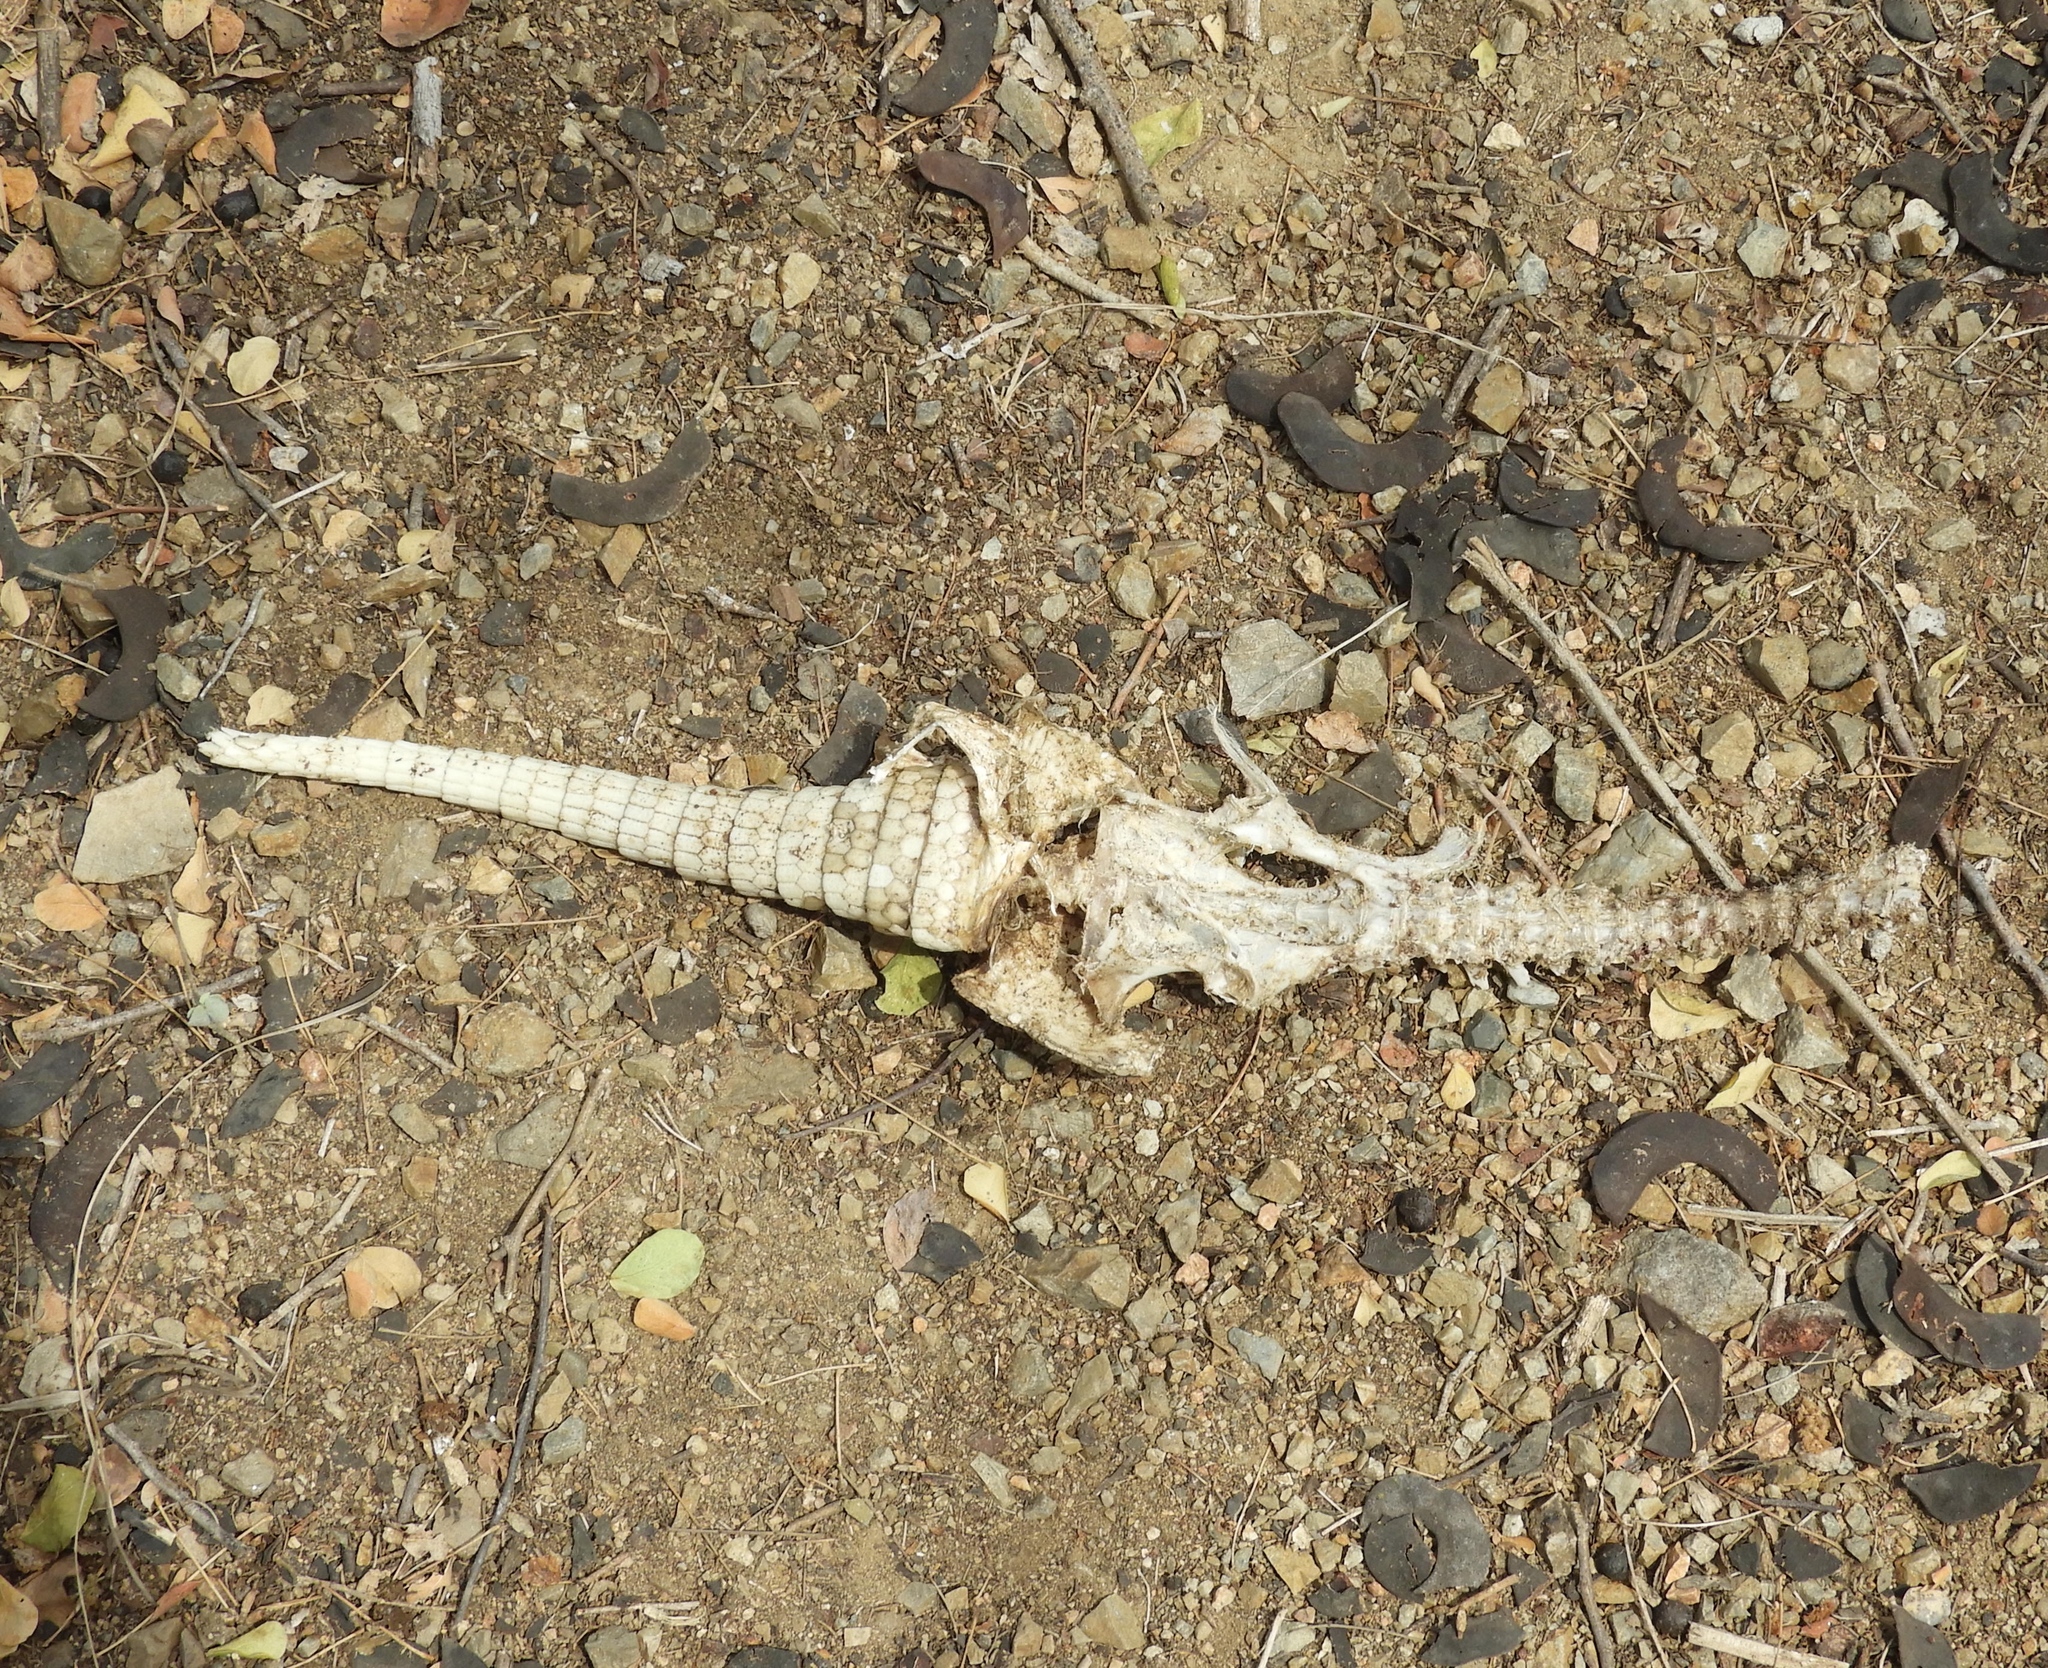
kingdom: Animalia
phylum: Chordata
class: Mammalia
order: Cingulata
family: Dasypodidae
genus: Dasypus
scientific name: Dasypus novemcinctus
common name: Nine-banded armadillo
